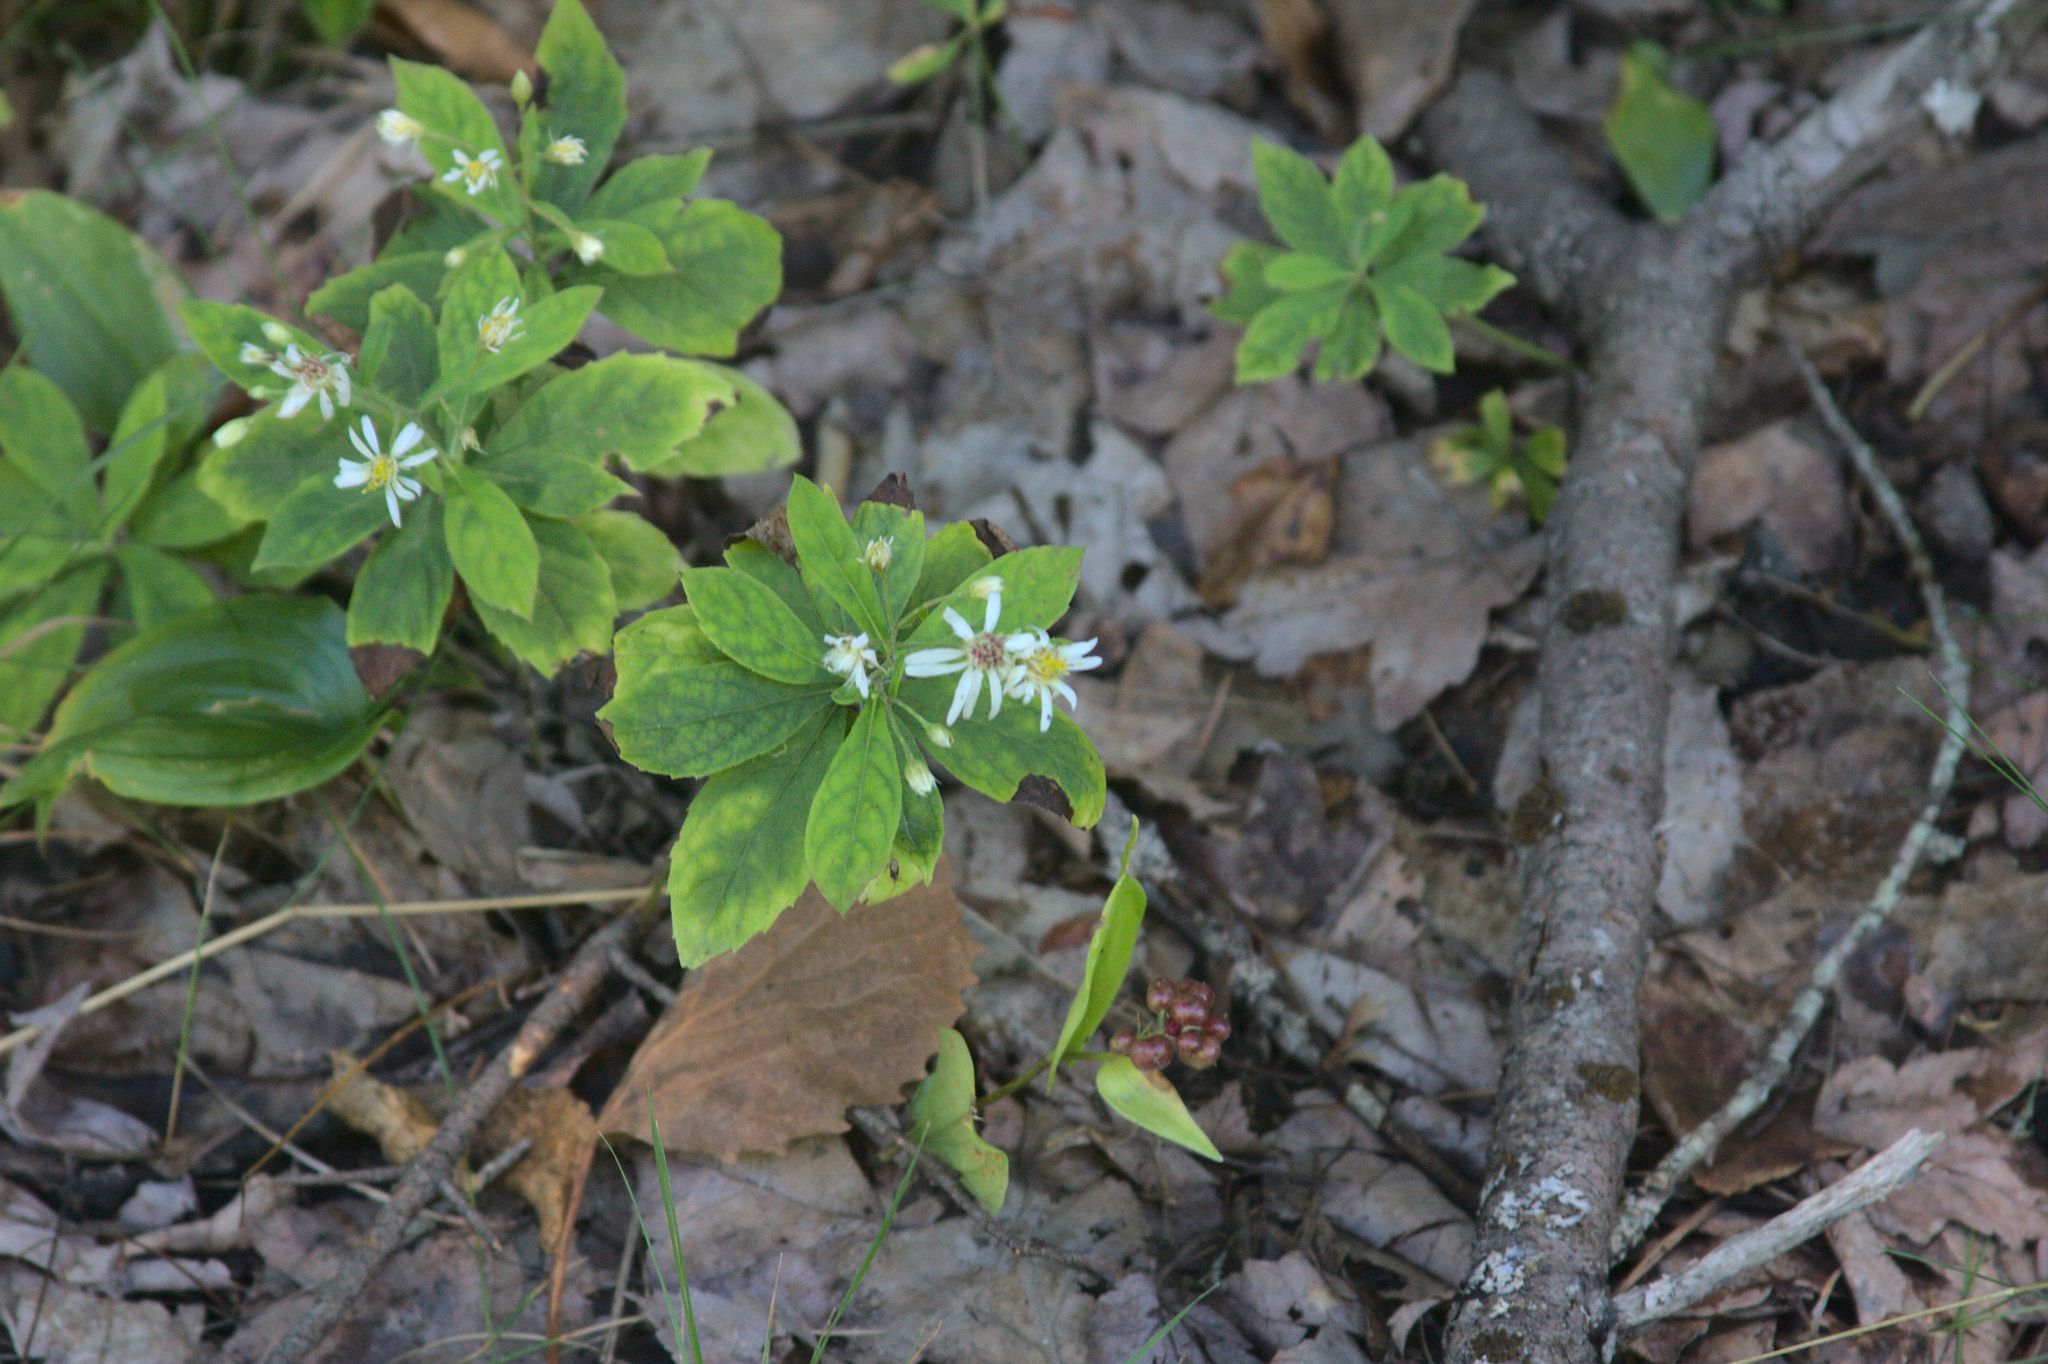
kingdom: Plantae
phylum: Tracheophyta
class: Magnoliopsida
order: Asterales
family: Asteraceae
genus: Oclemena
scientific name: Oclemena acuminata
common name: Mountain aster
